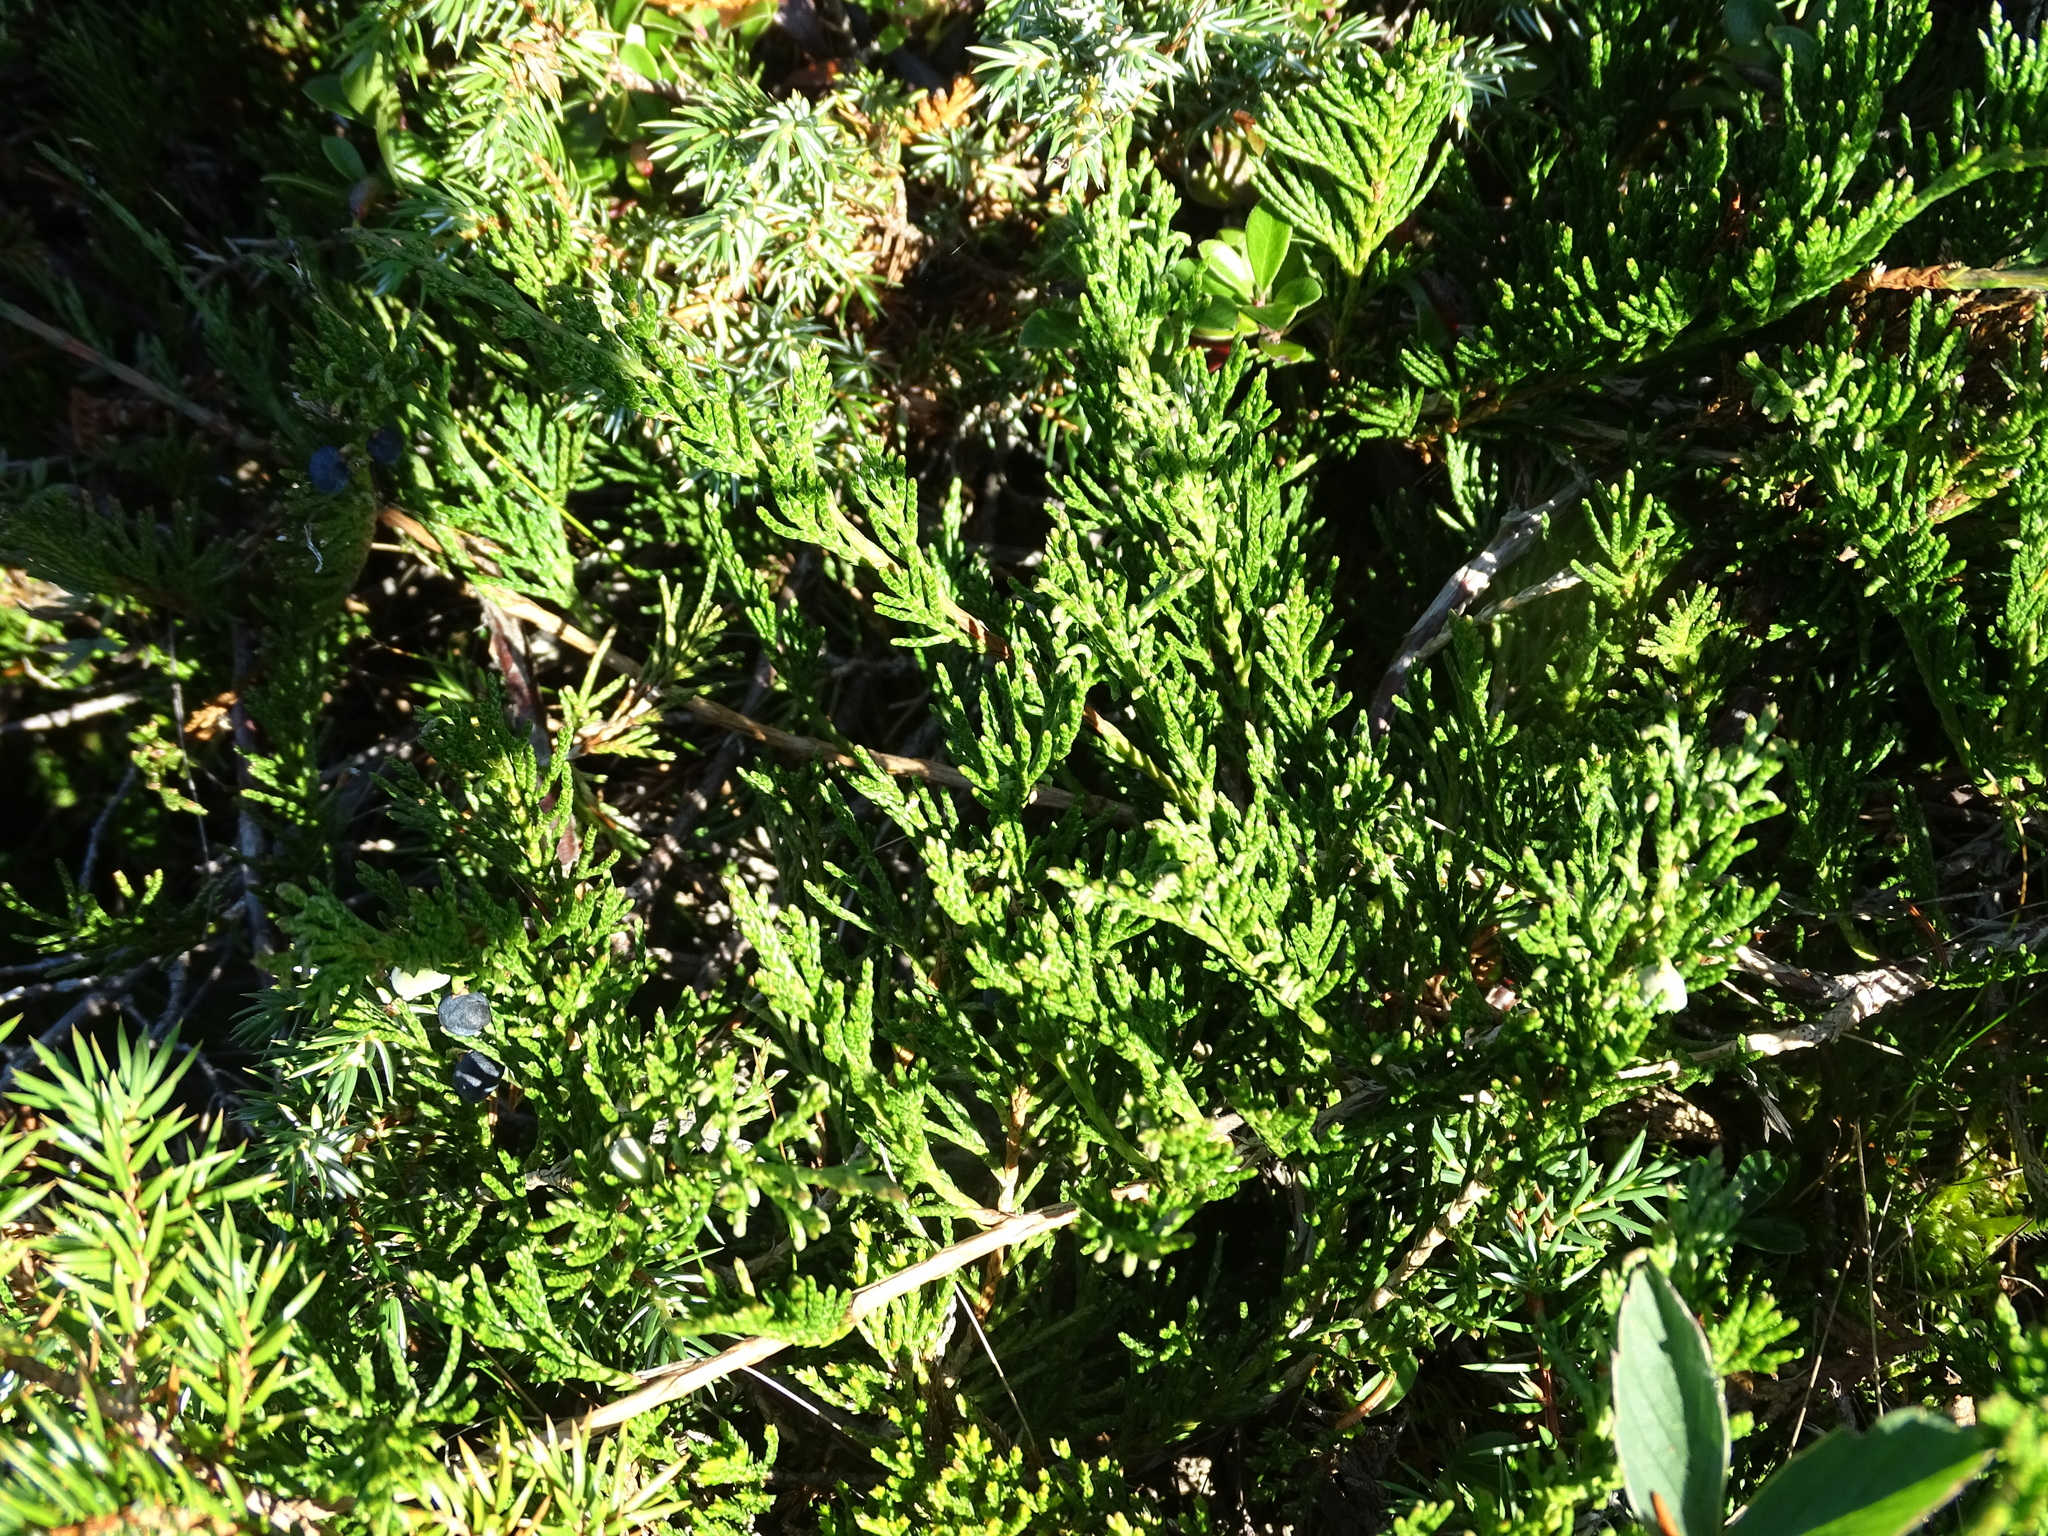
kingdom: Plantae
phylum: Tracheophyta
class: Pinopsida
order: Pinales
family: Cupressaceae
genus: Juniperus
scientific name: Juniperus horizontalis
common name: Creeping juniper
